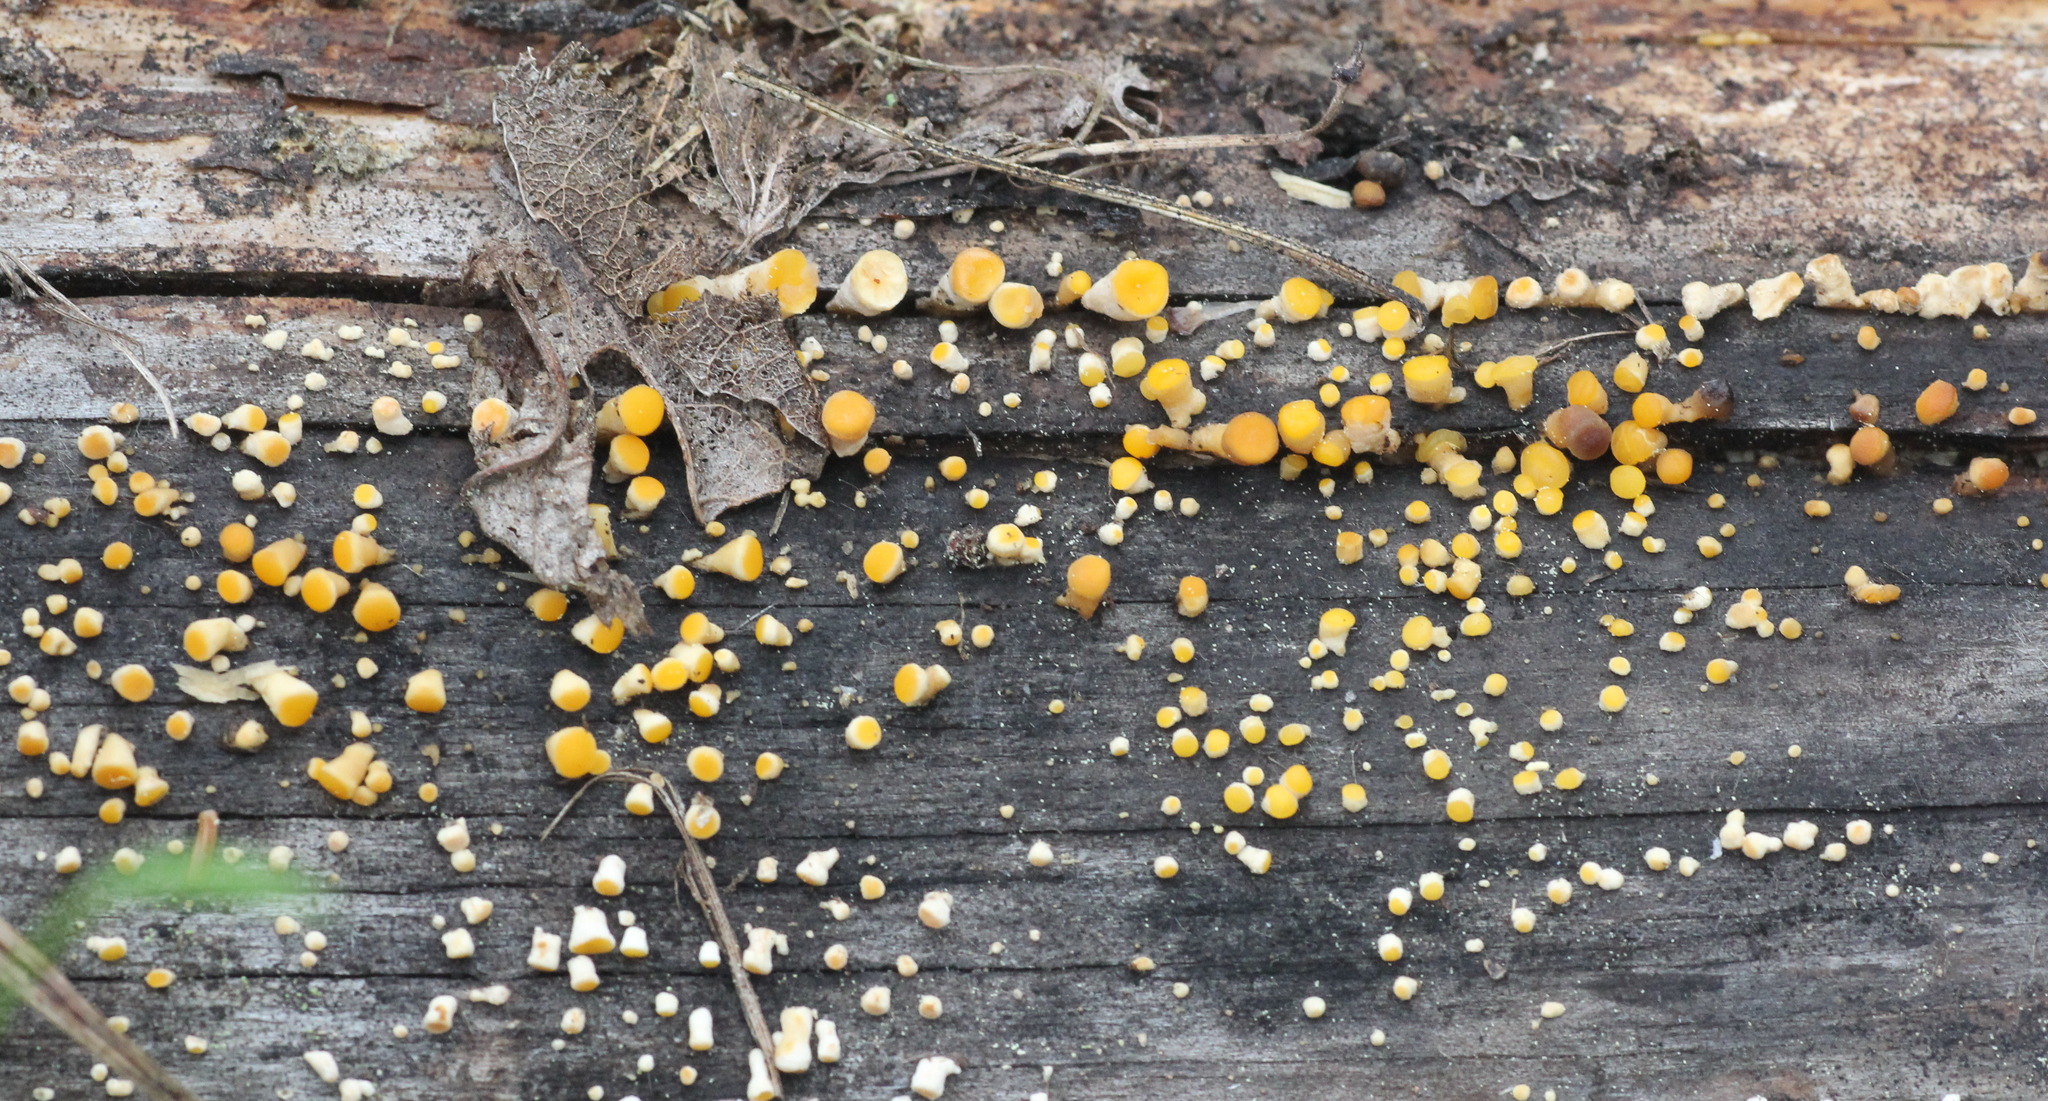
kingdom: Fungi
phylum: Basidiomycota
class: Dacrymycetes
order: Dacrymycetales
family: Dacrymycetaceae
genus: Ditiola
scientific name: Ditiola radicata
